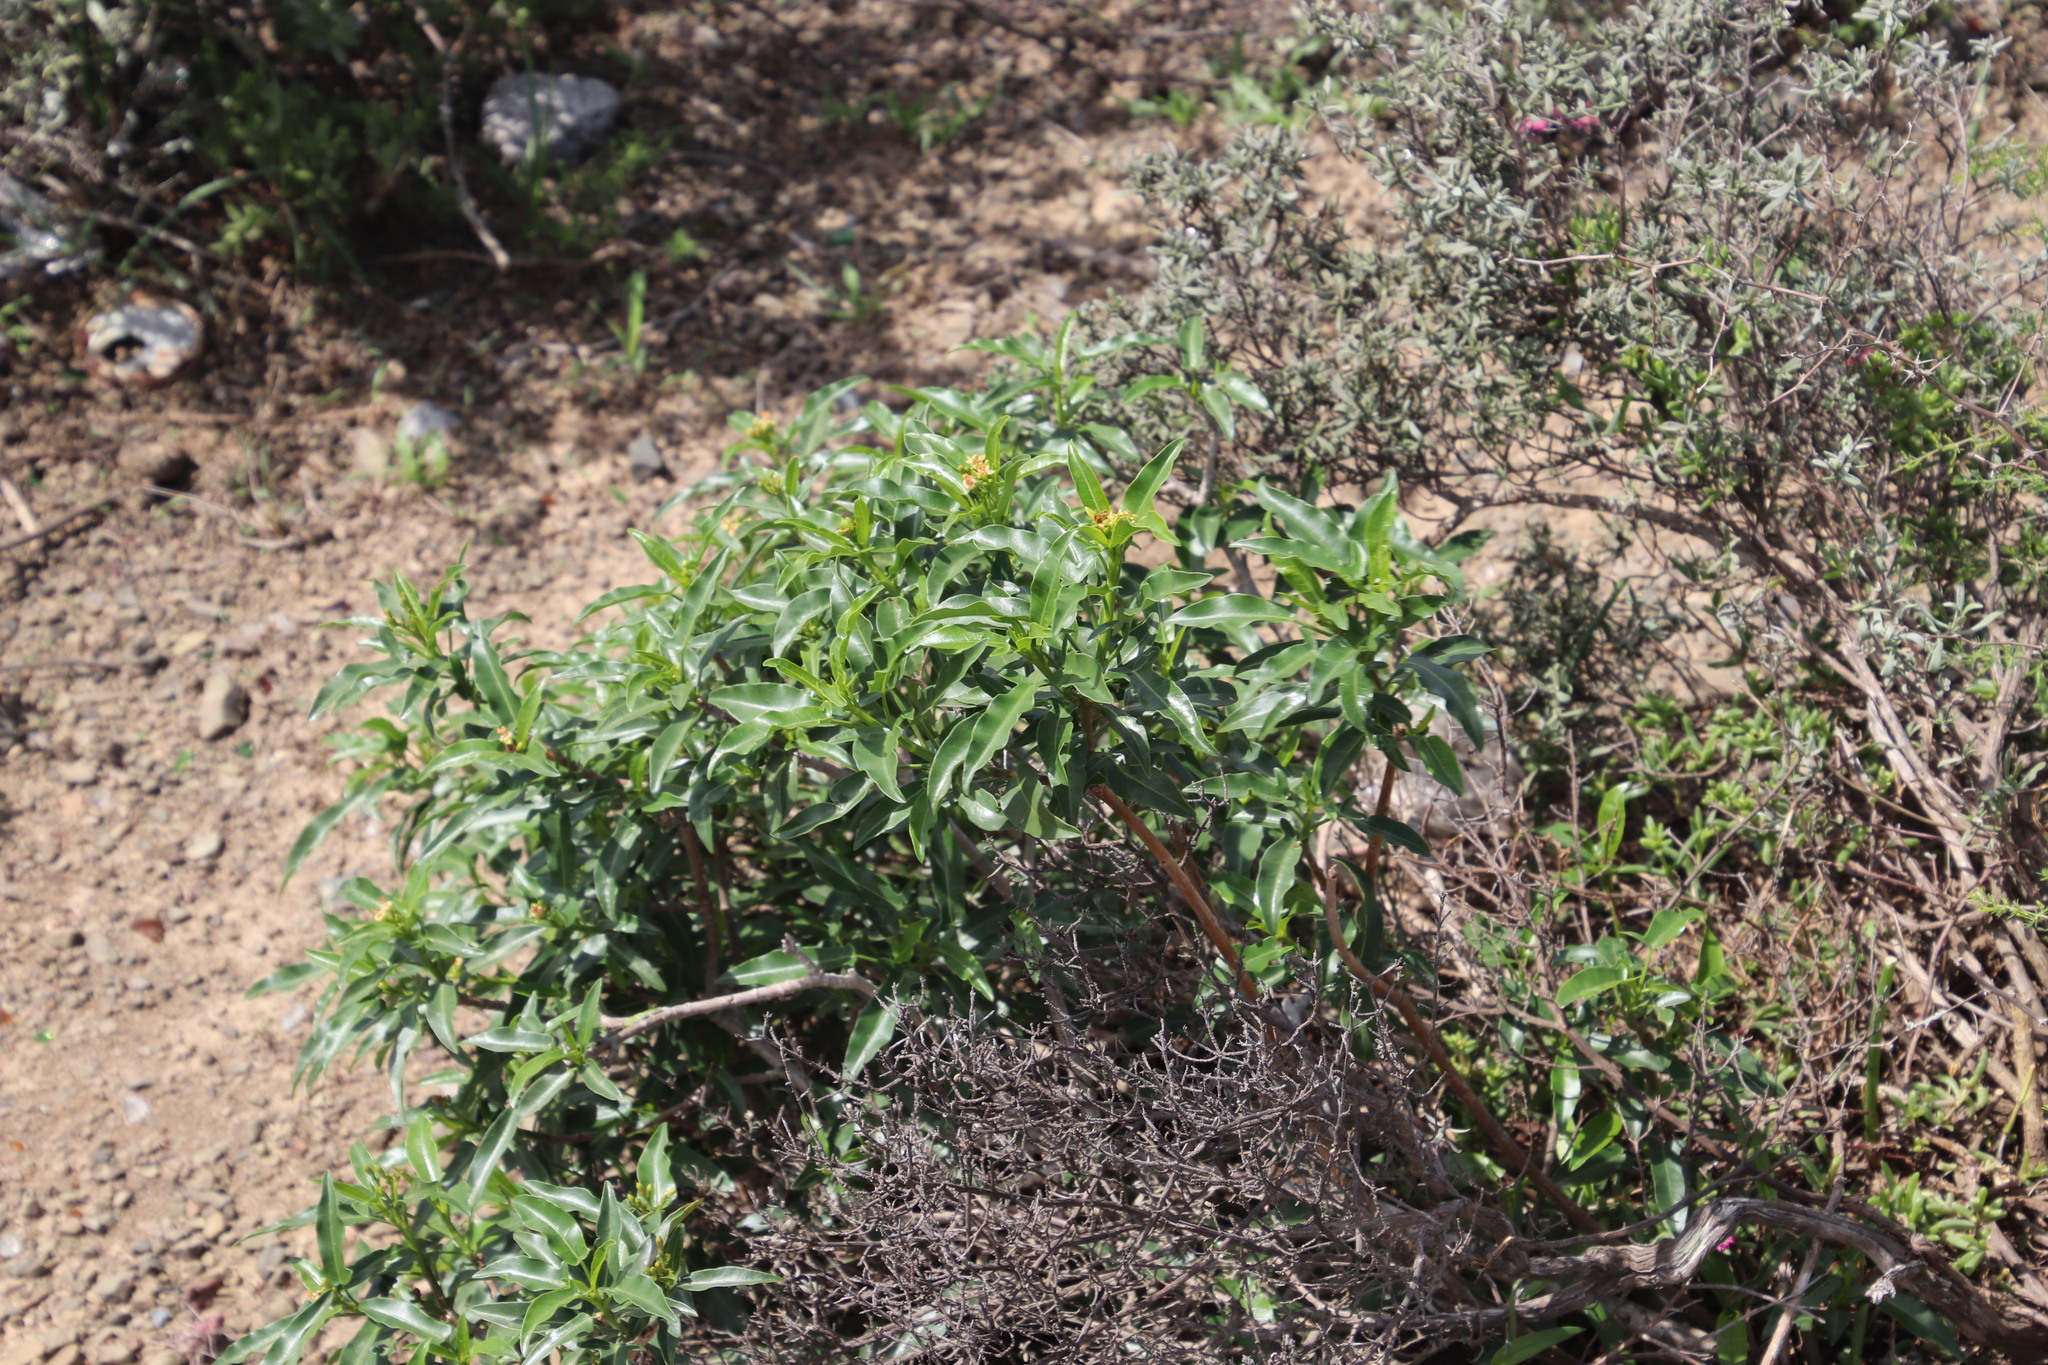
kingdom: Plantae
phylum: Tracheophyta
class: Magnoliopsida
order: Malpighiales
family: Euphorbiaceae
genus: Jatropha
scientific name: Jatropha capensis
